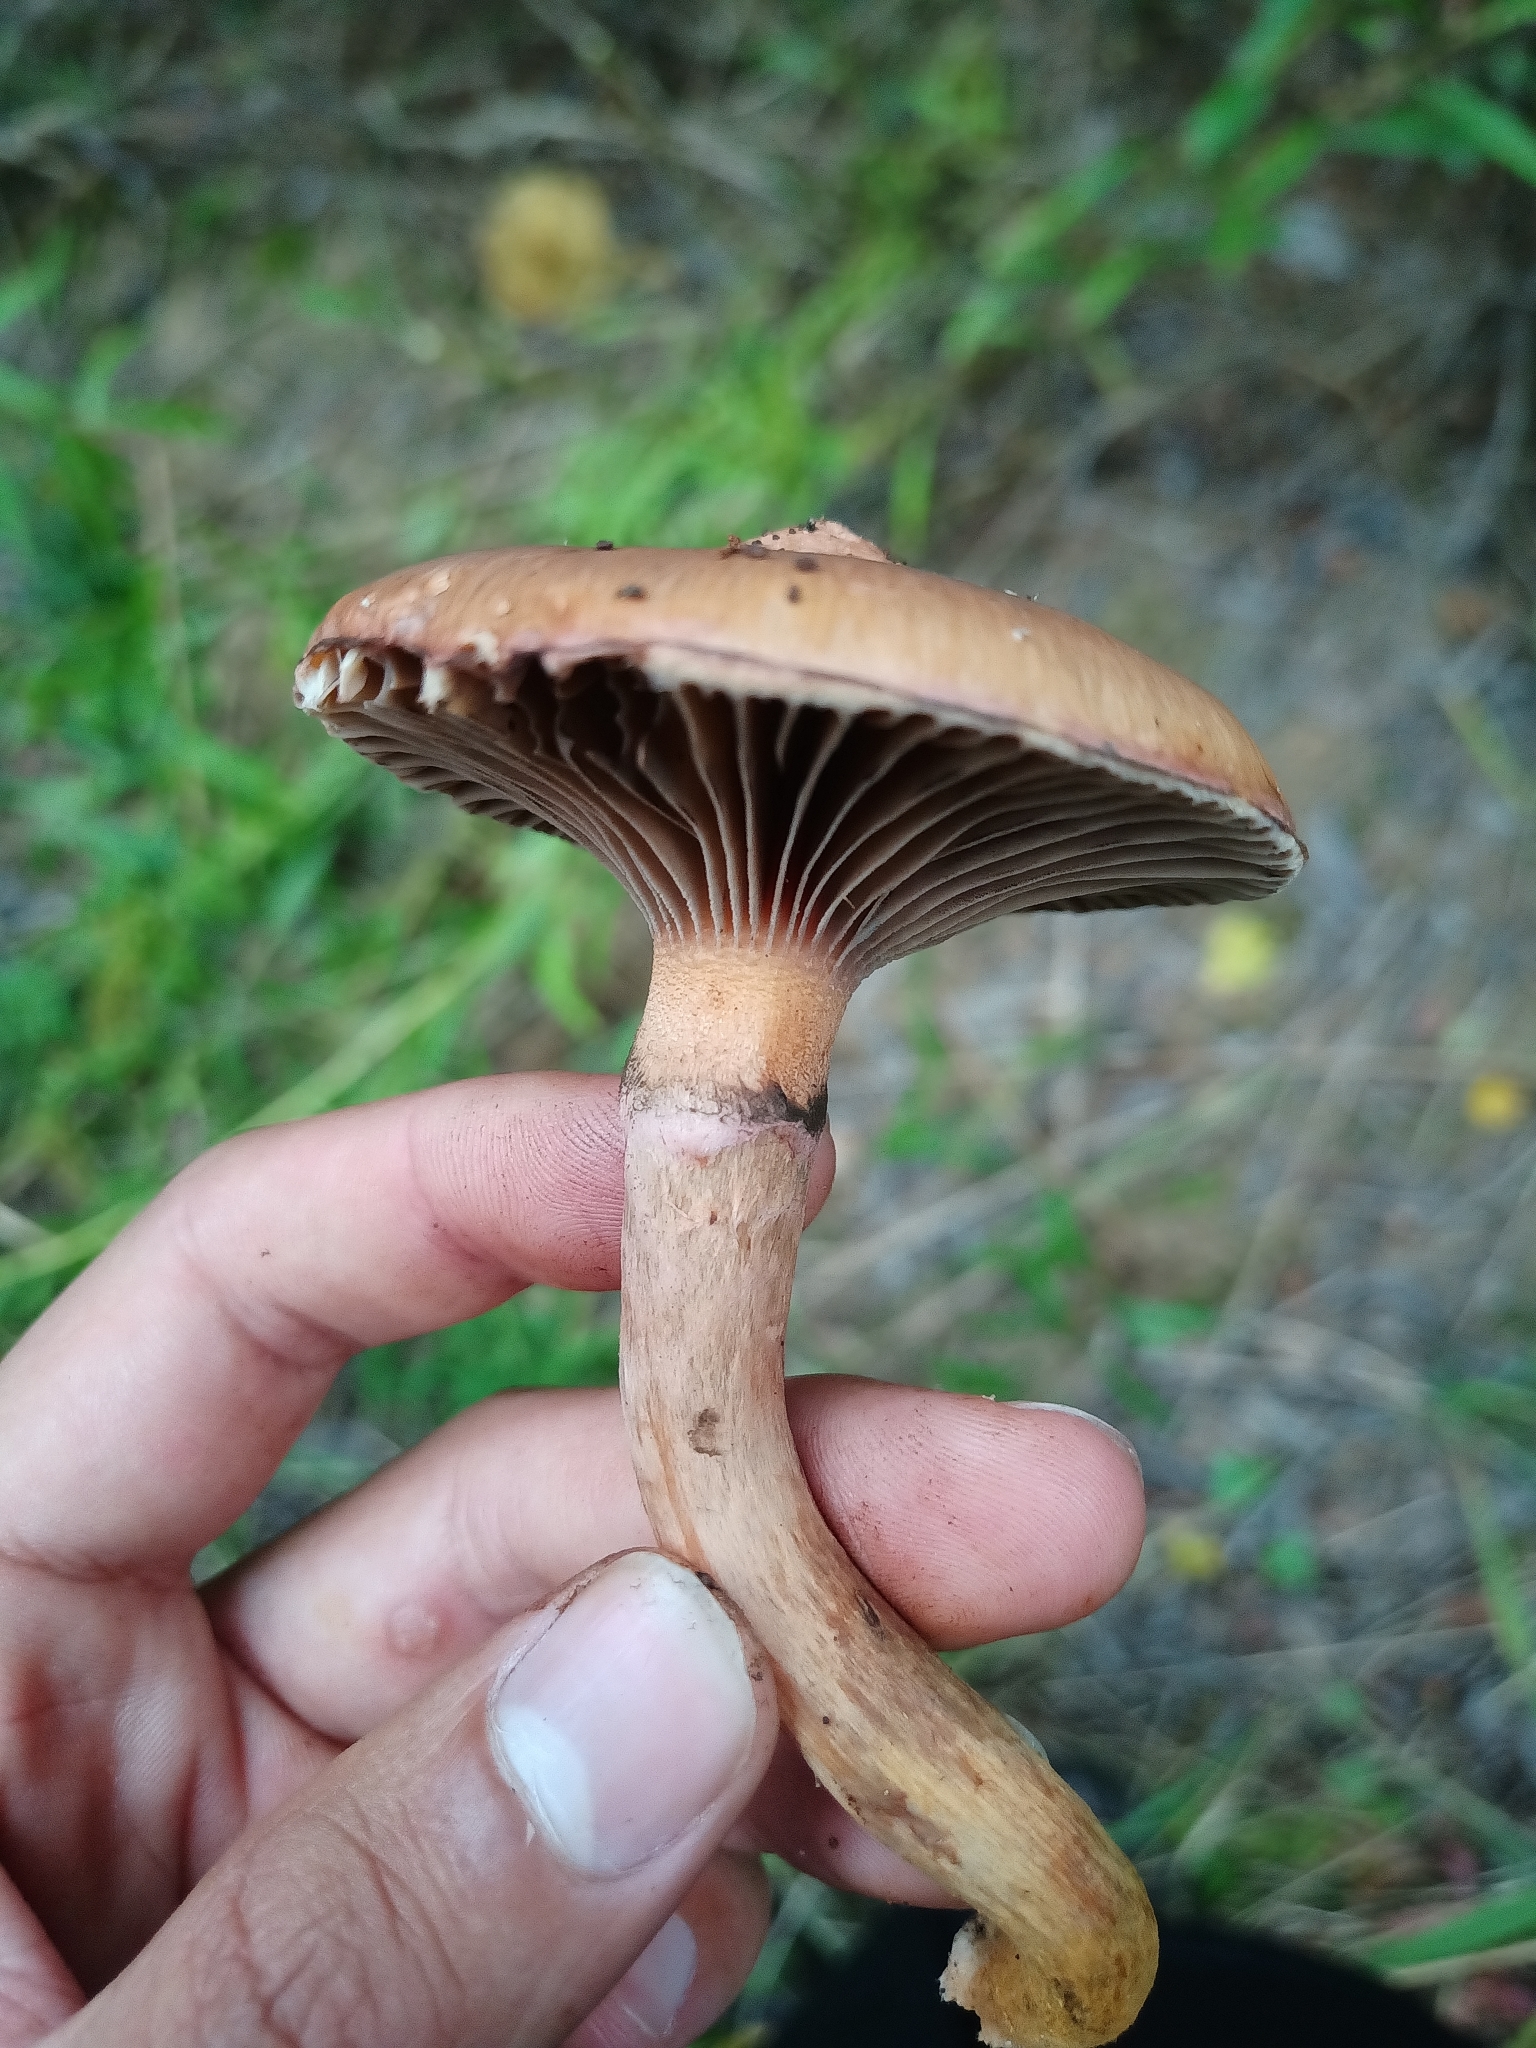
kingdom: Fungi
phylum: Basidiomycota
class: Agaricomycetes
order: Boletales
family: Gomphidiaceae
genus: Chroogomphus
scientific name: Chroogomphus rutilus
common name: Copper spike
